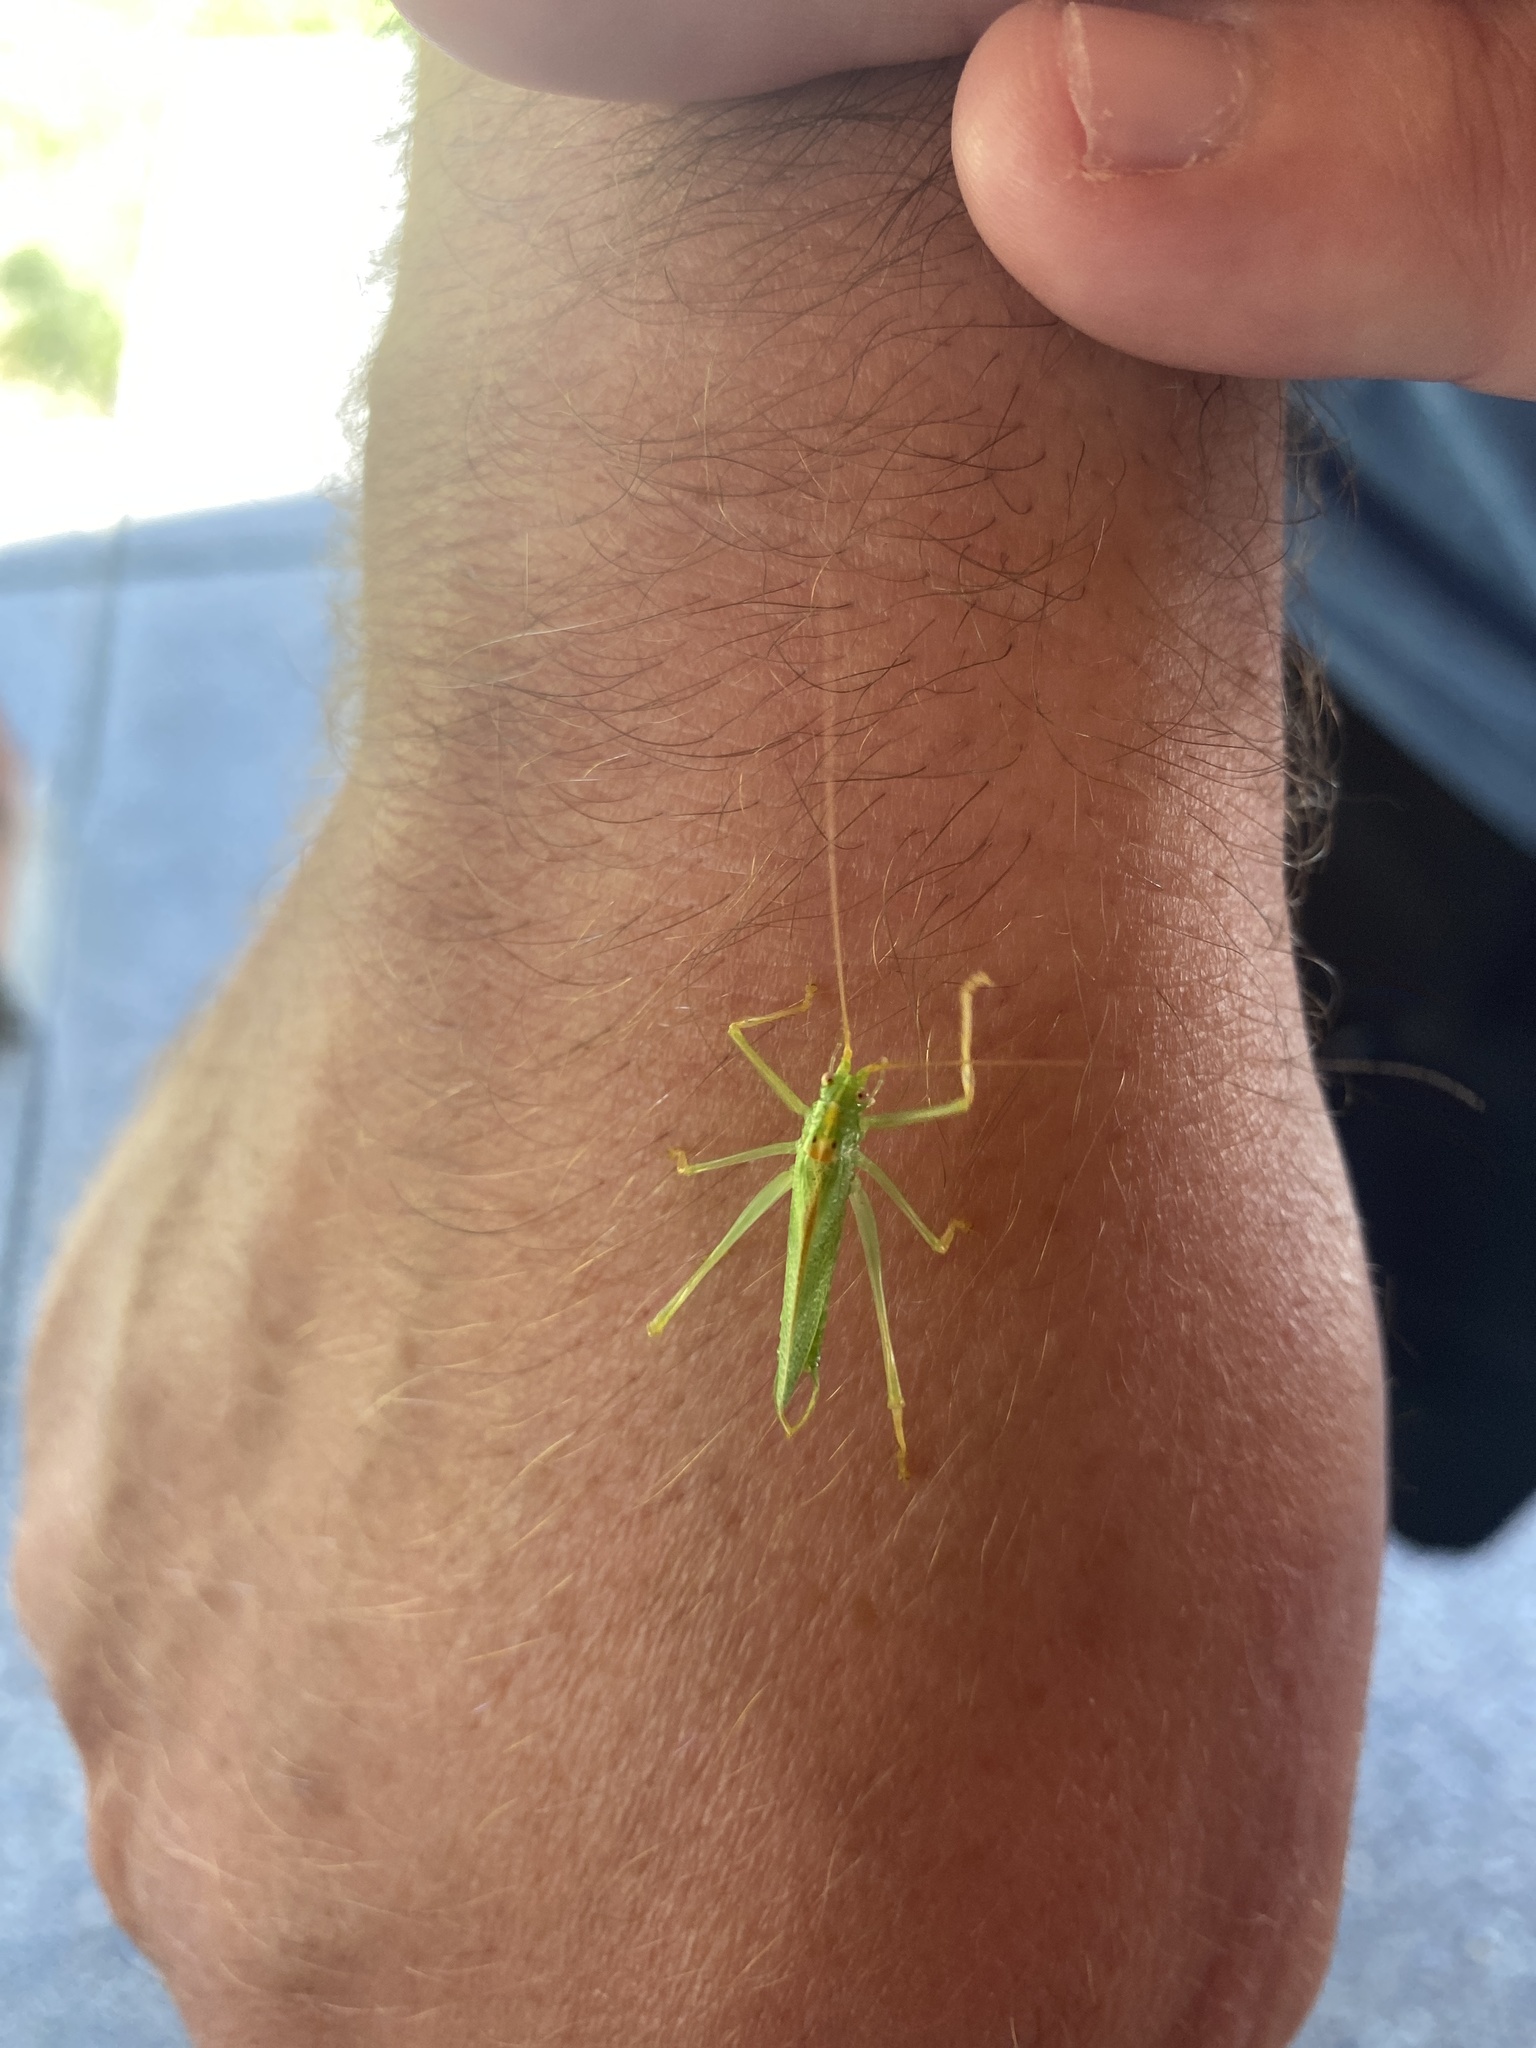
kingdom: Animalia
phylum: Arthropoda
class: Insecta
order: Orthoptera
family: Tettigoniidae
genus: Meconema
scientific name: Meconema thalassinum
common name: Oak bush-cricket
